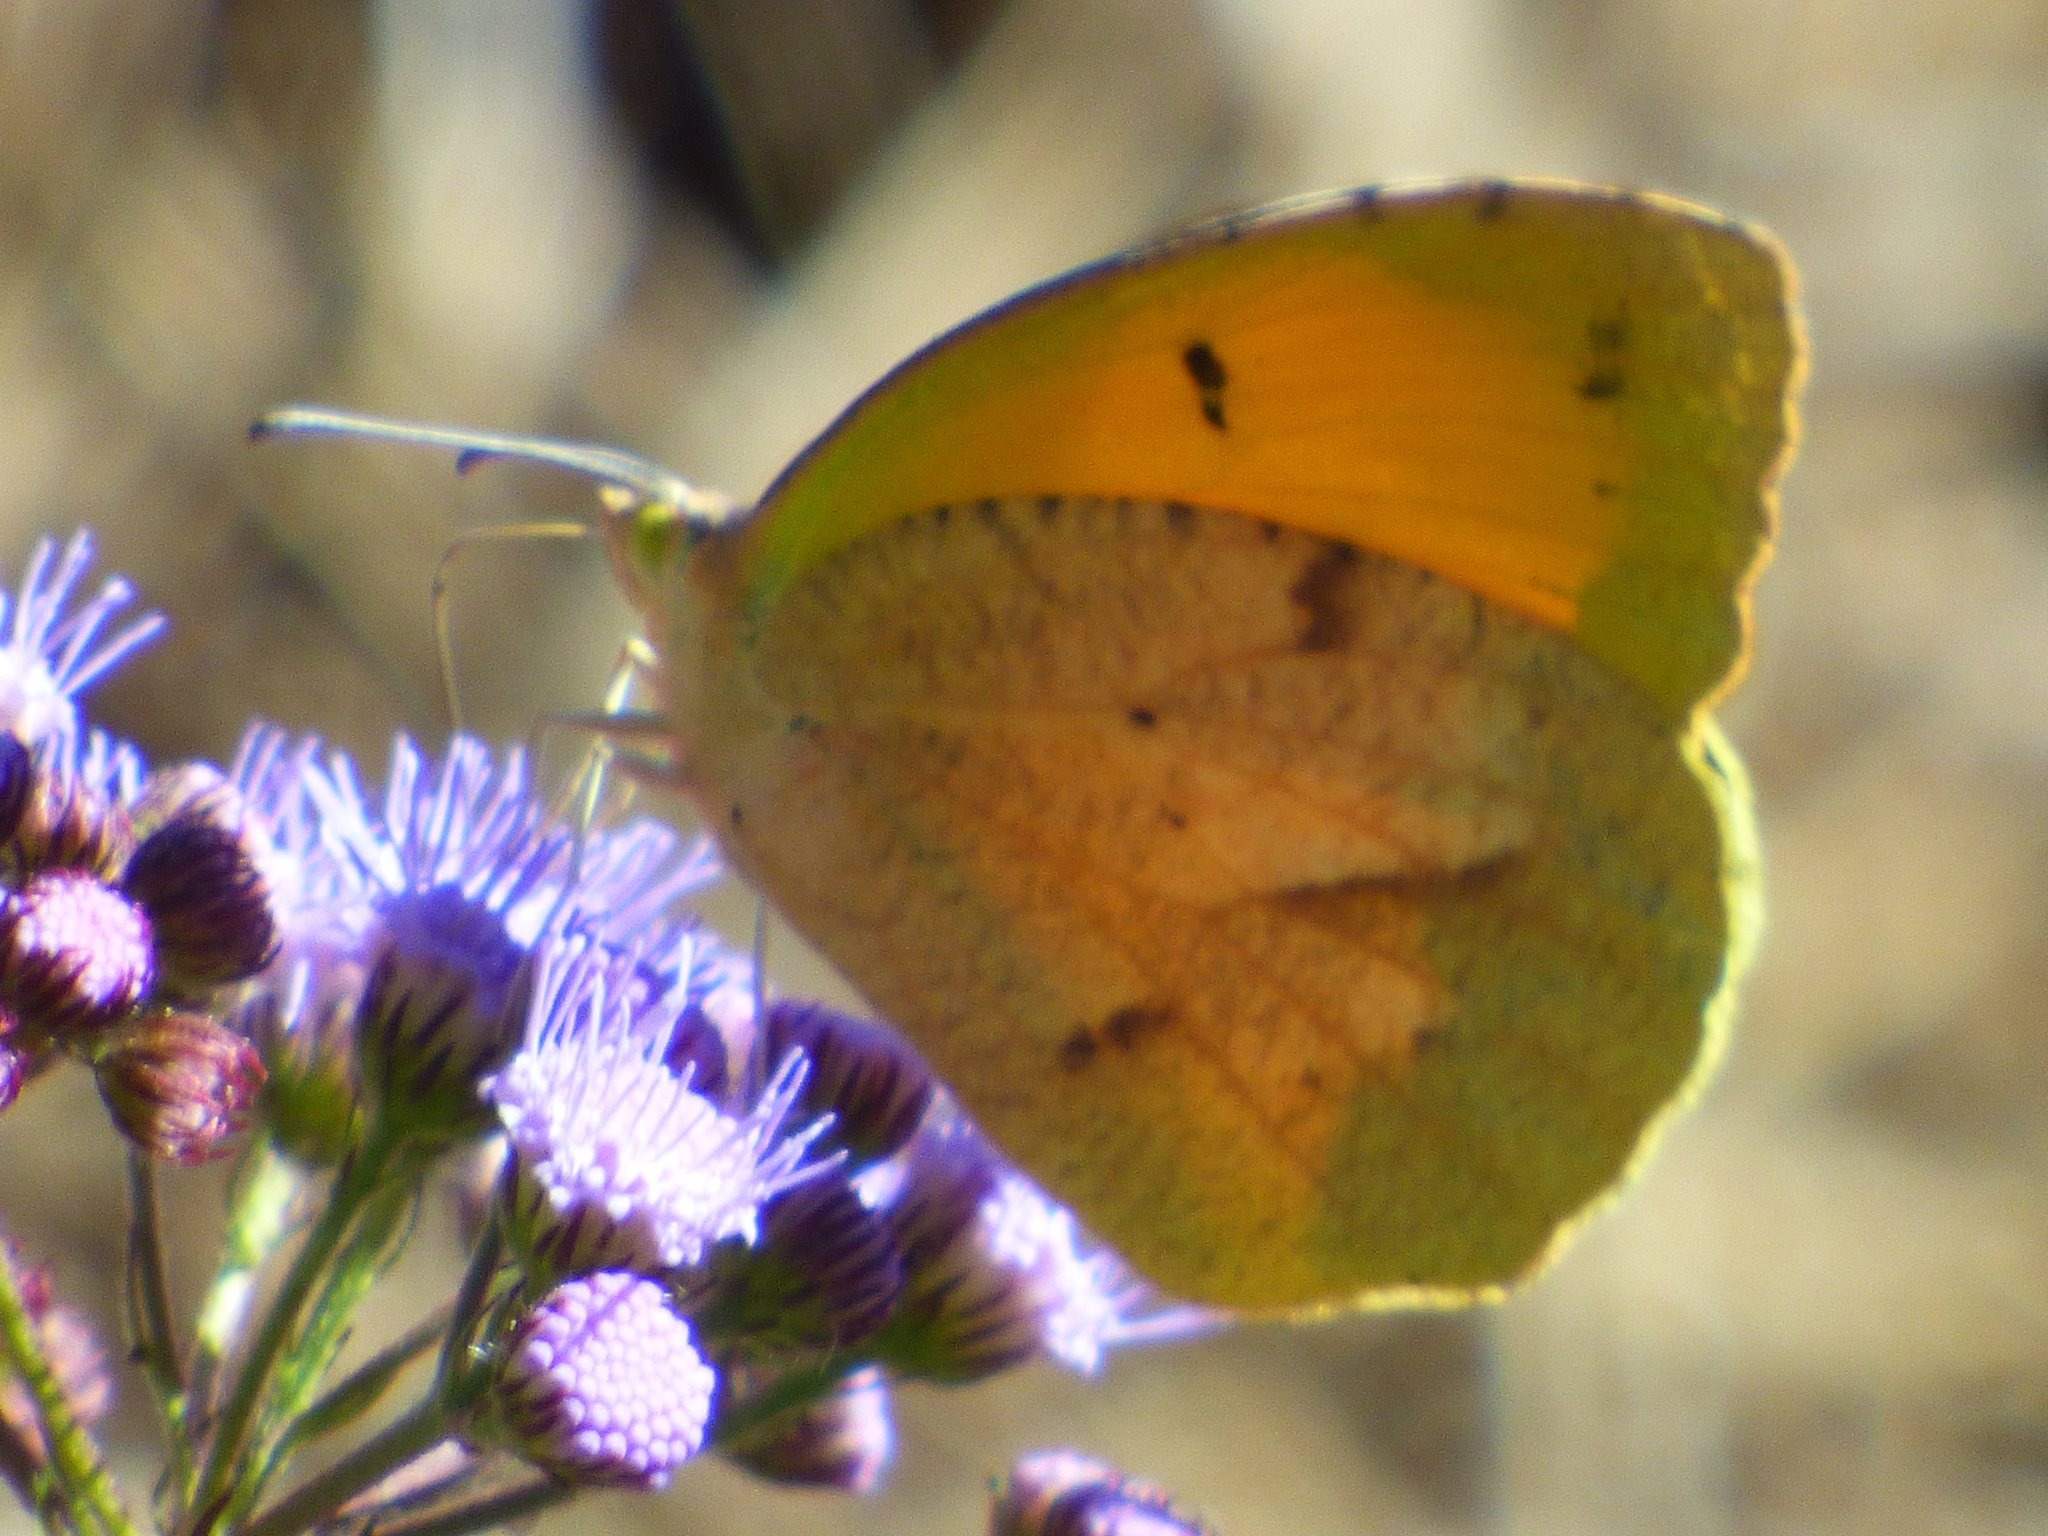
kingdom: Animalia
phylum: Arthropoda
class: Insecta
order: Lepidoptera
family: Pieridae
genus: Abaeis
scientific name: Abaeis nicippe
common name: Sleepy orange
